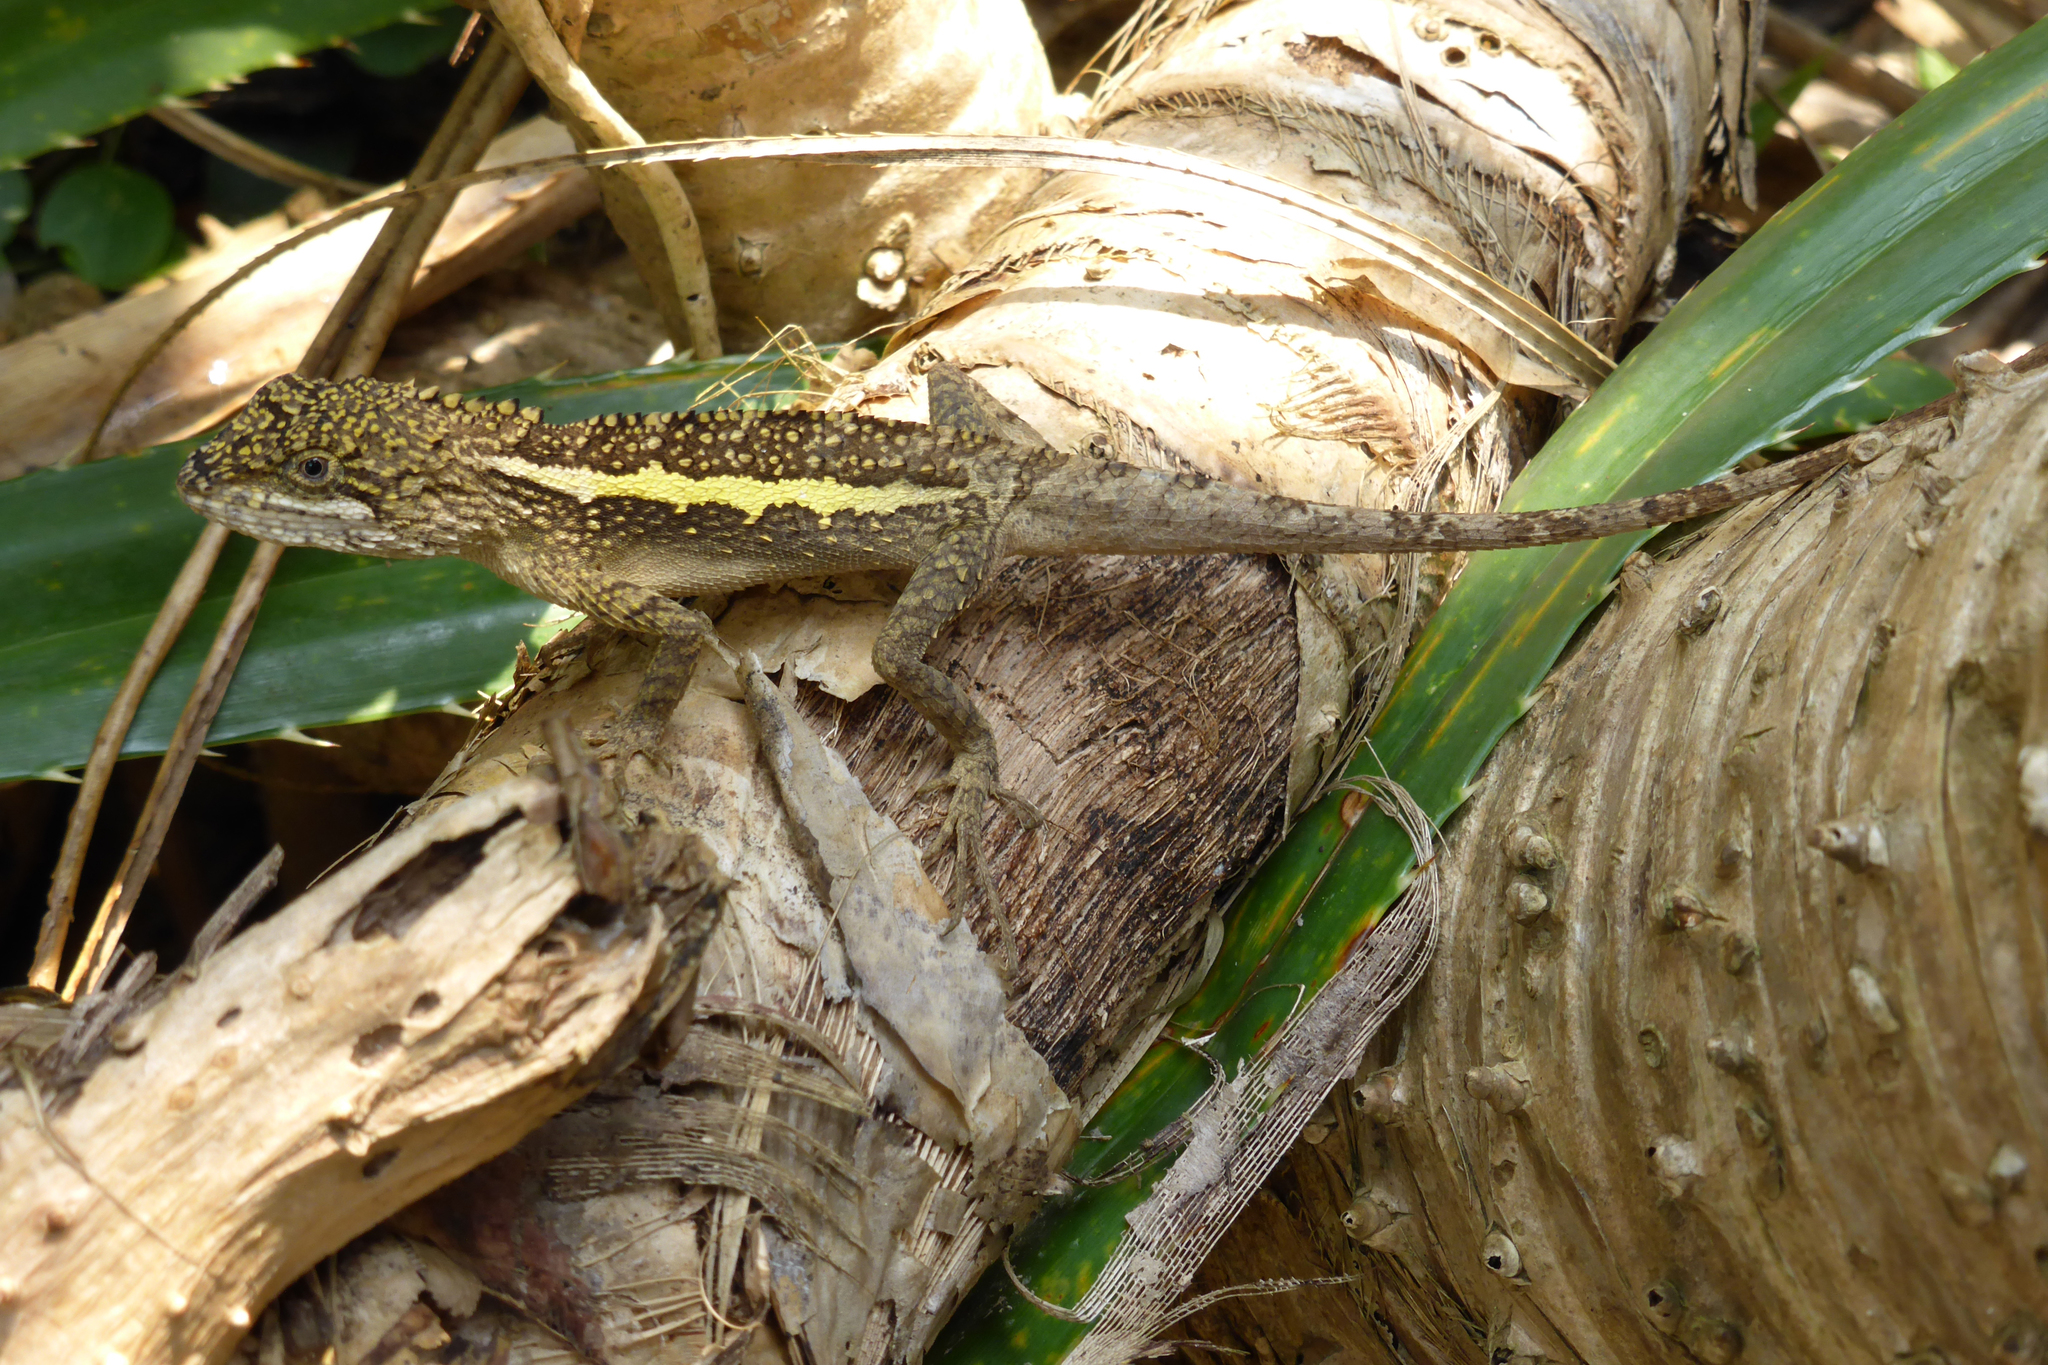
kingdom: Animalia
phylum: Chordata
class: Squamata
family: Agamidae
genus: Diploderma
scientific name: Diploderma swinhonis
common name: Taiwan japalure
